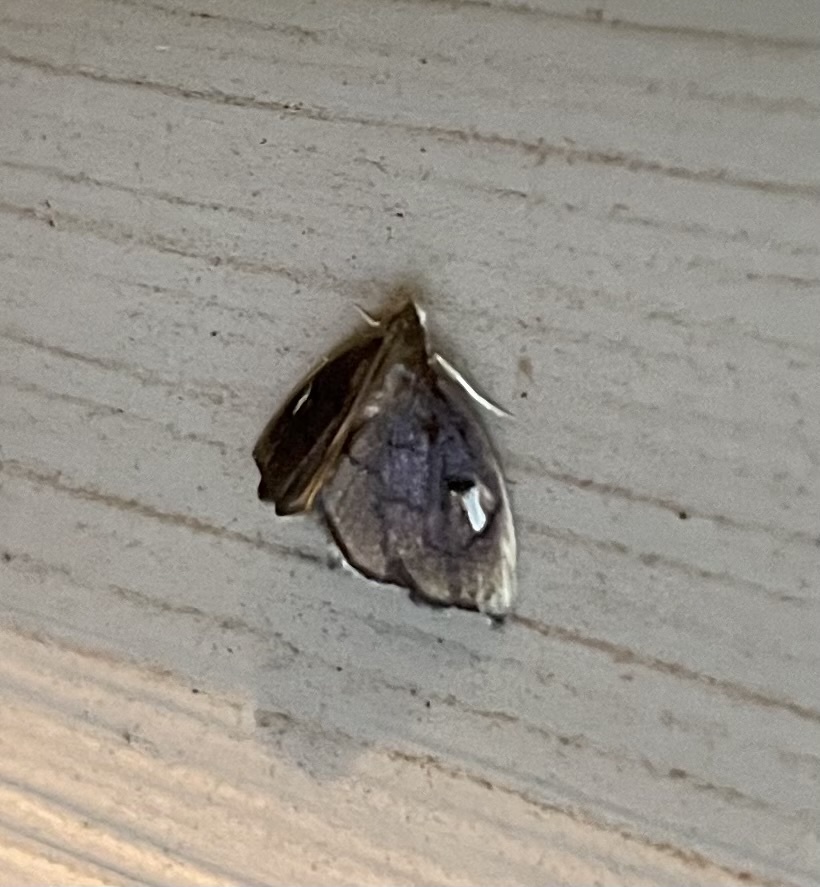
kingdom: Animalia
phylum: Arthropoda
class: Insecta
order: Lepidoptera
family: Crambidae
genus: Perispasta
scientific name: Perispasta caeculalis
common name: Titian peale's moth
